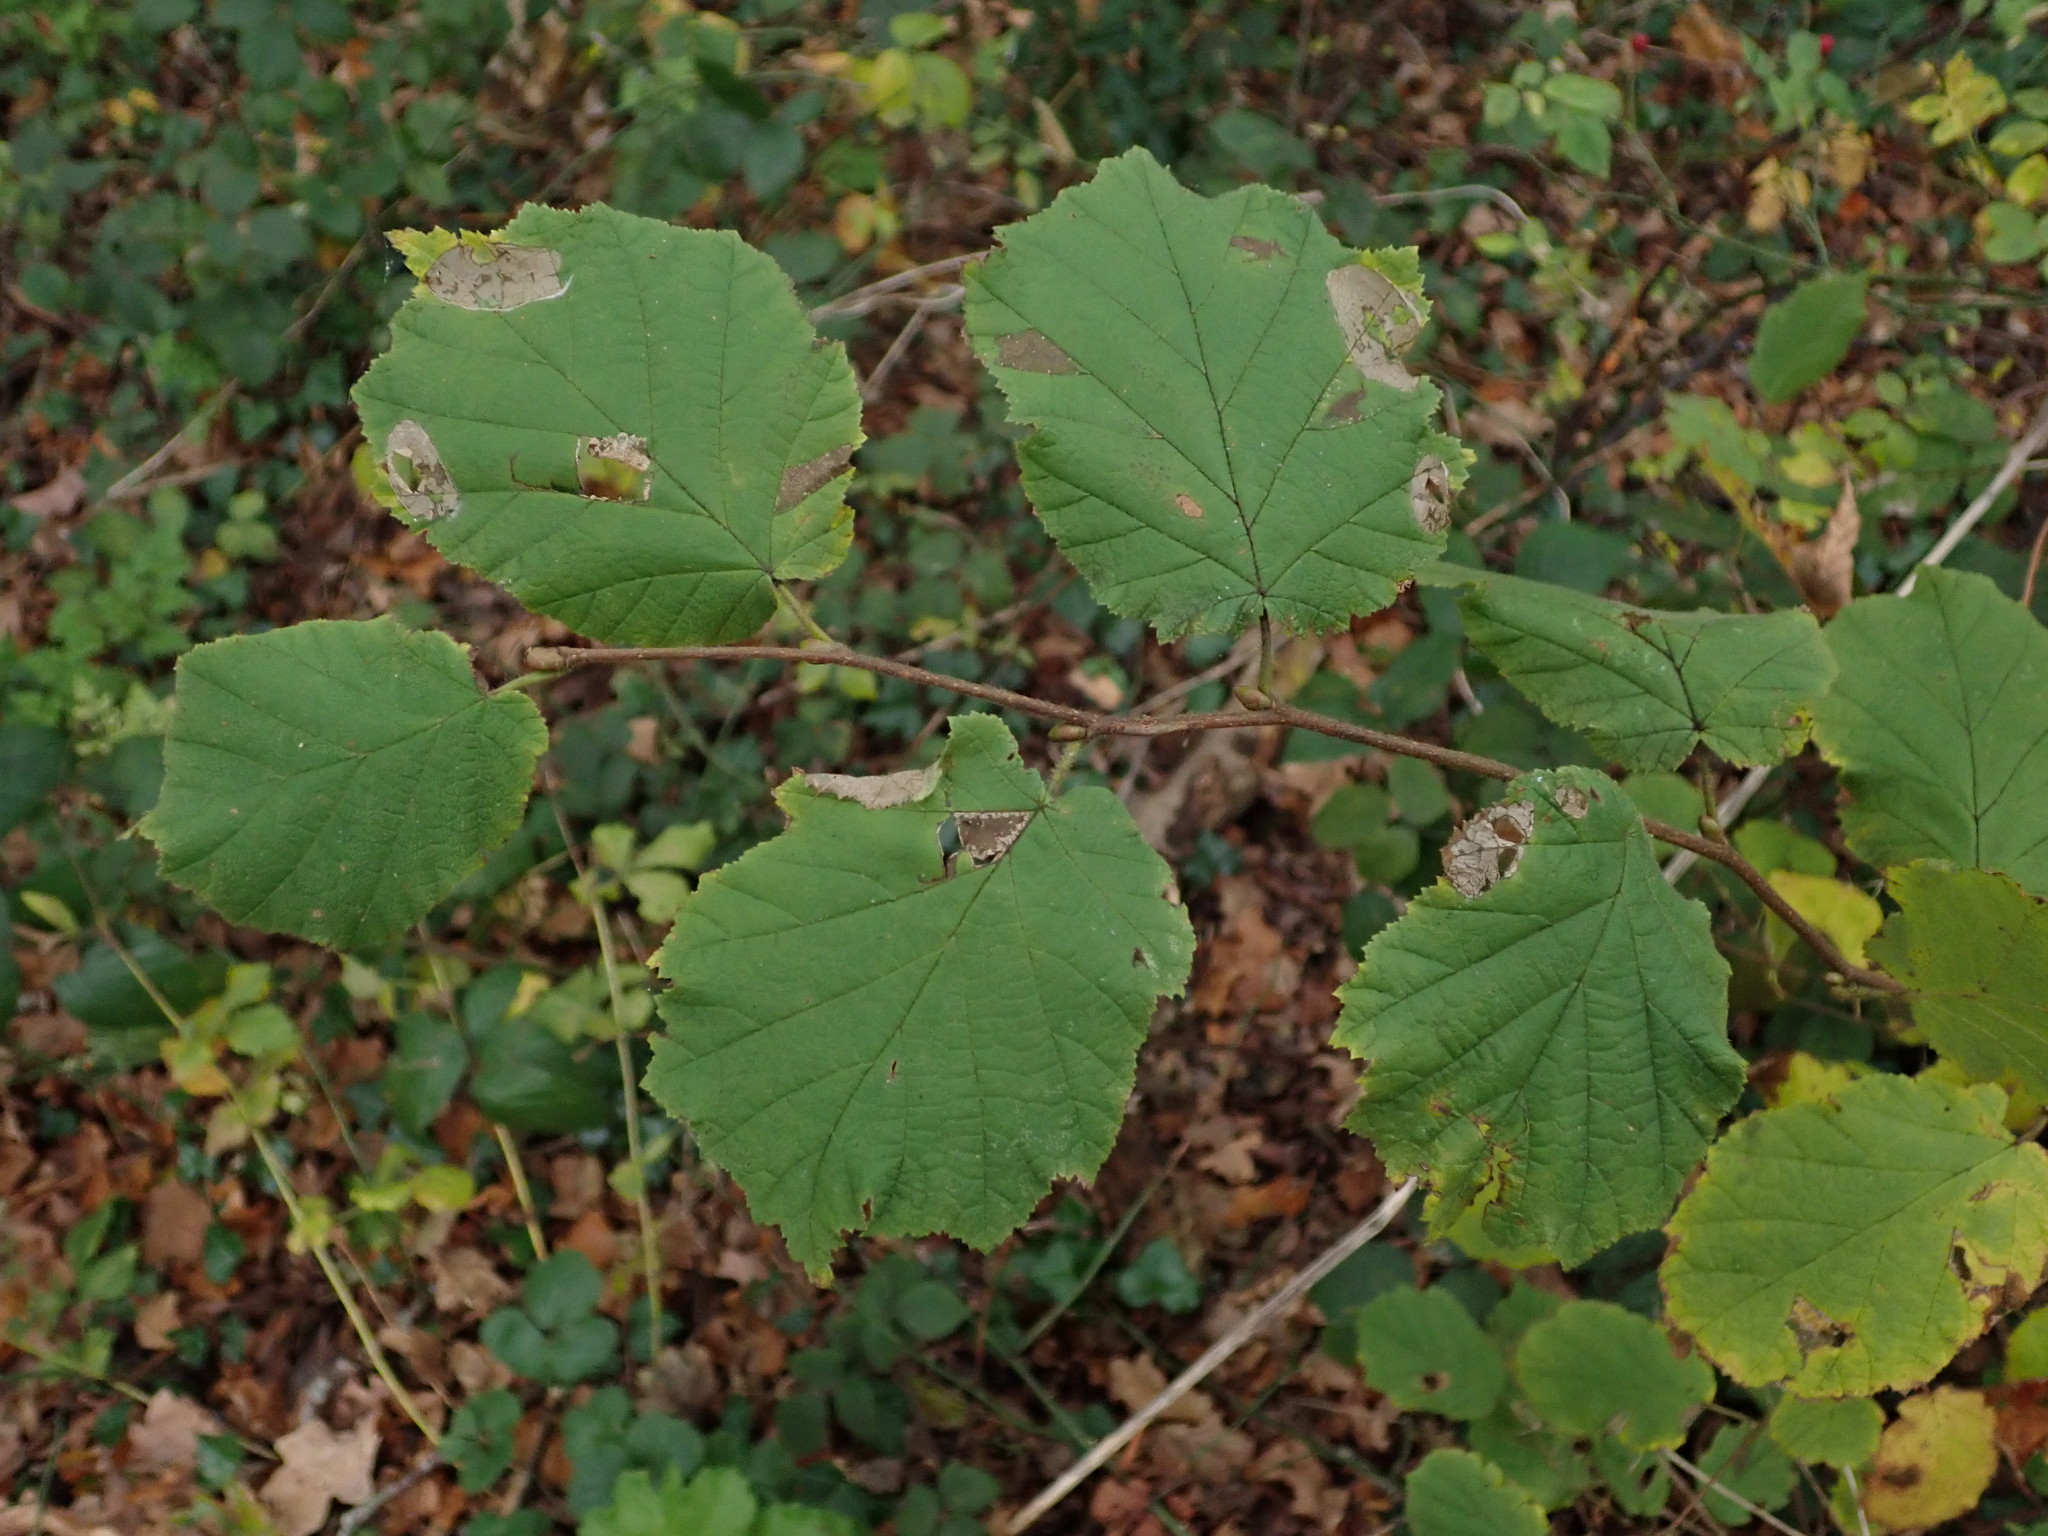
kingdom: Plantae
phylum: Tracheophyta
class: Magnoliopsida
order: Fagales
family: Betulaceae
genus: Corylus
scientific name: Corylus avellana
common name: European hazel
